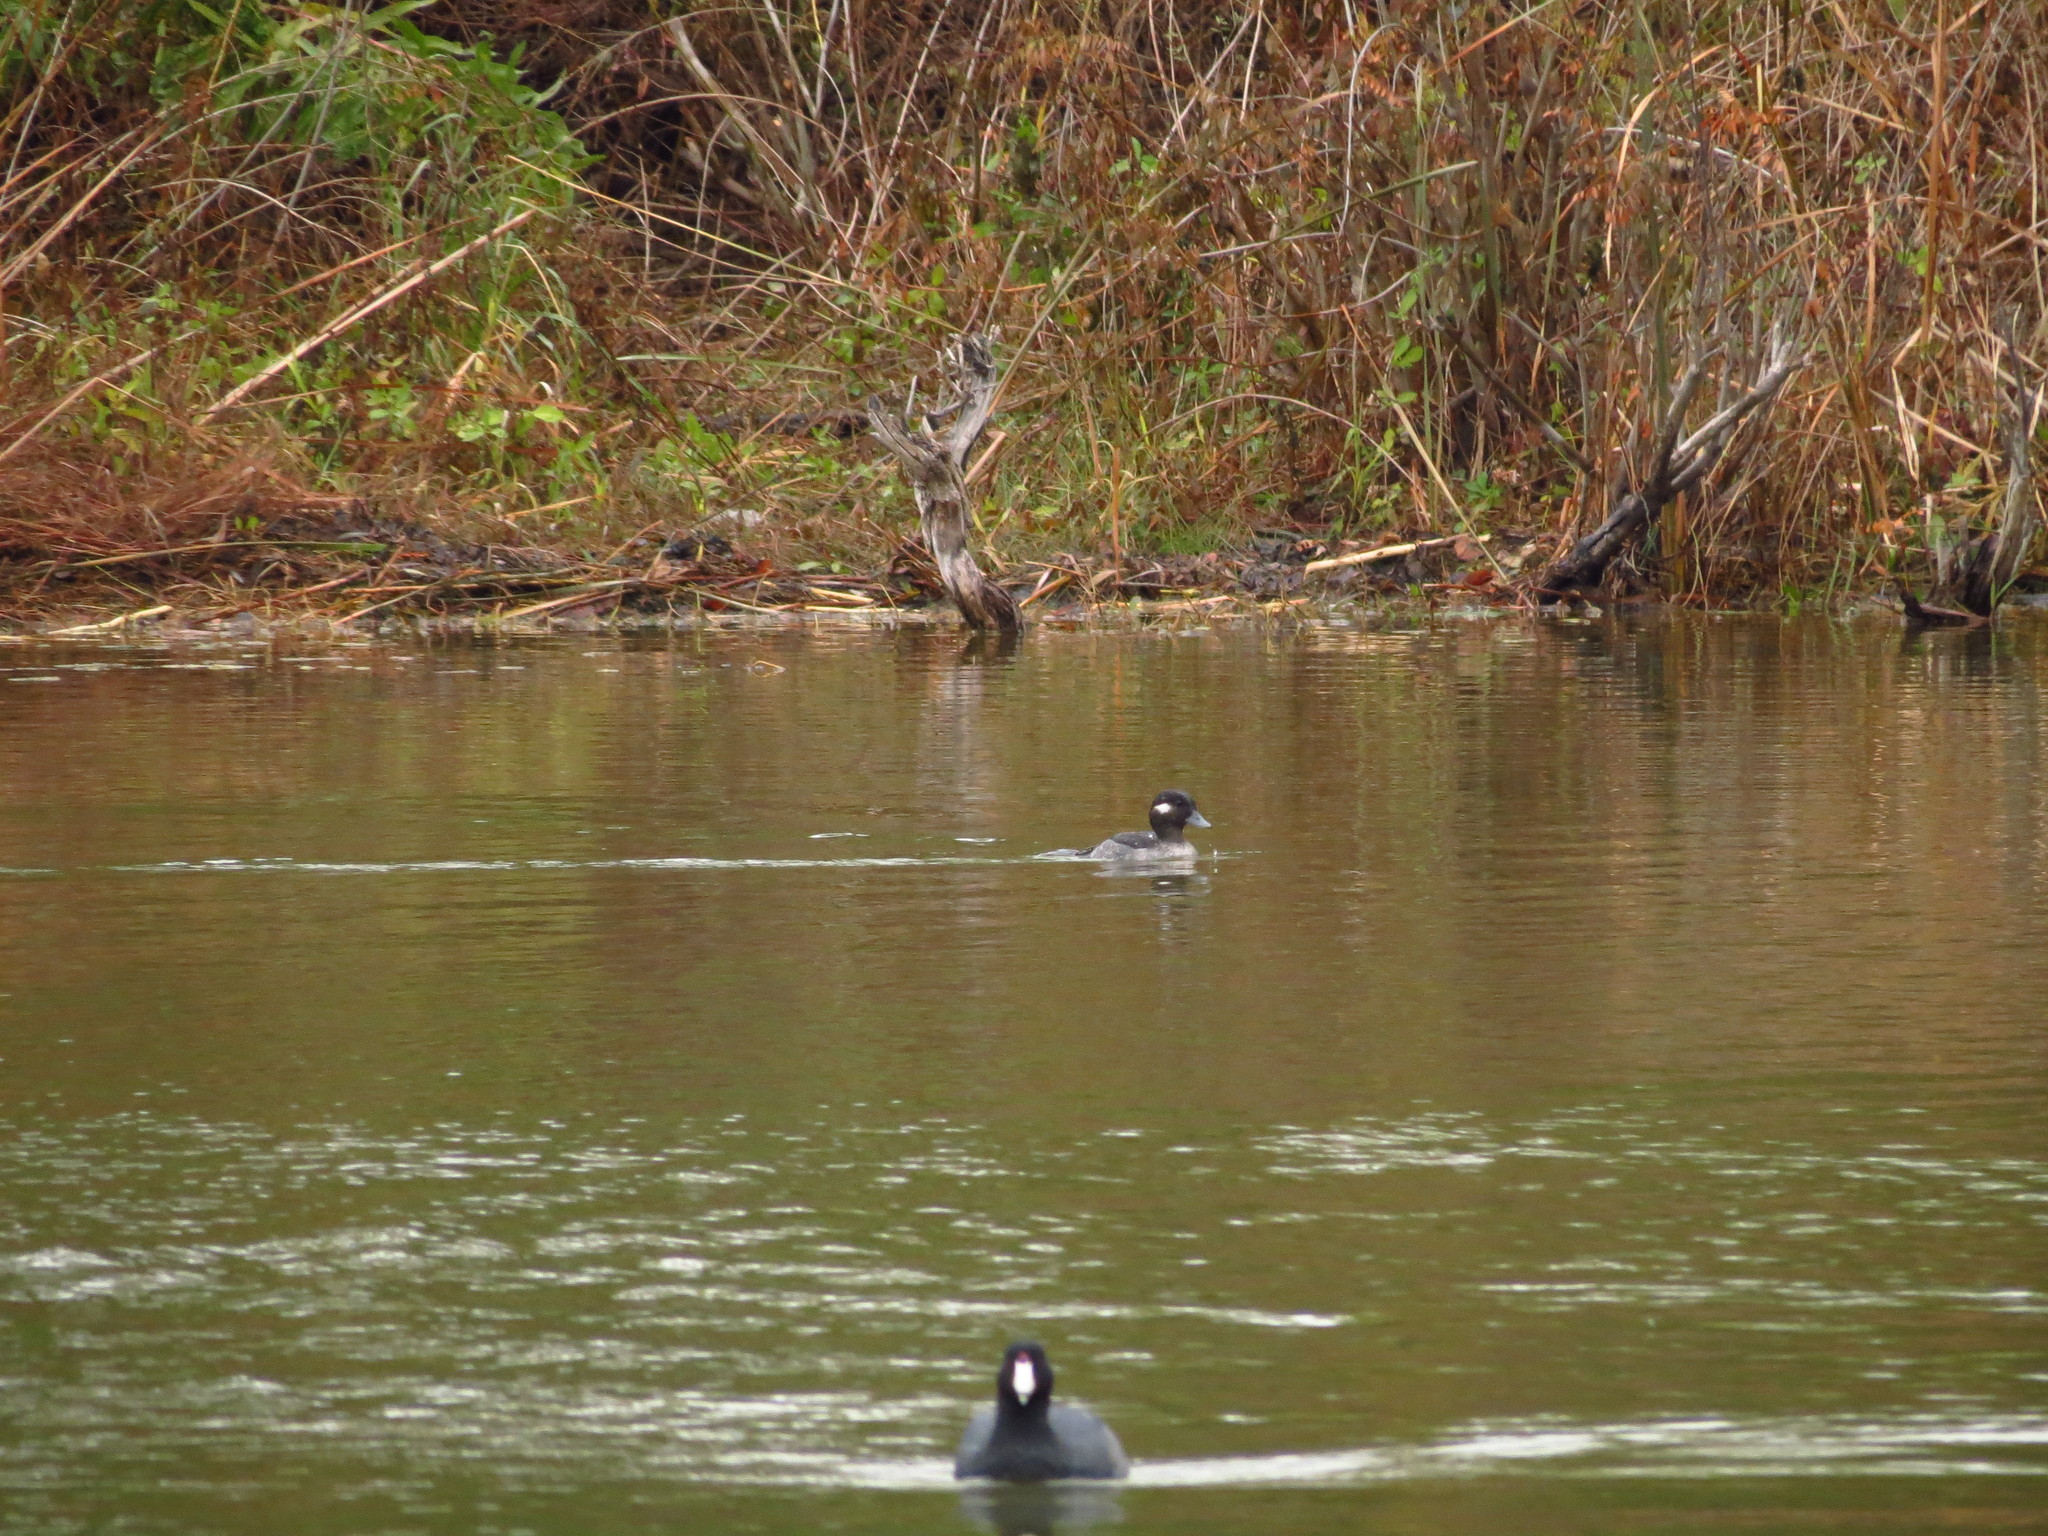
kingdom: Animalia
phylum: Chordata
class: Aves
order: Anseriformes
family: Anatidae
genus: Bucephala
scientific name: Bucephala albeola
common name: Bufflehead
